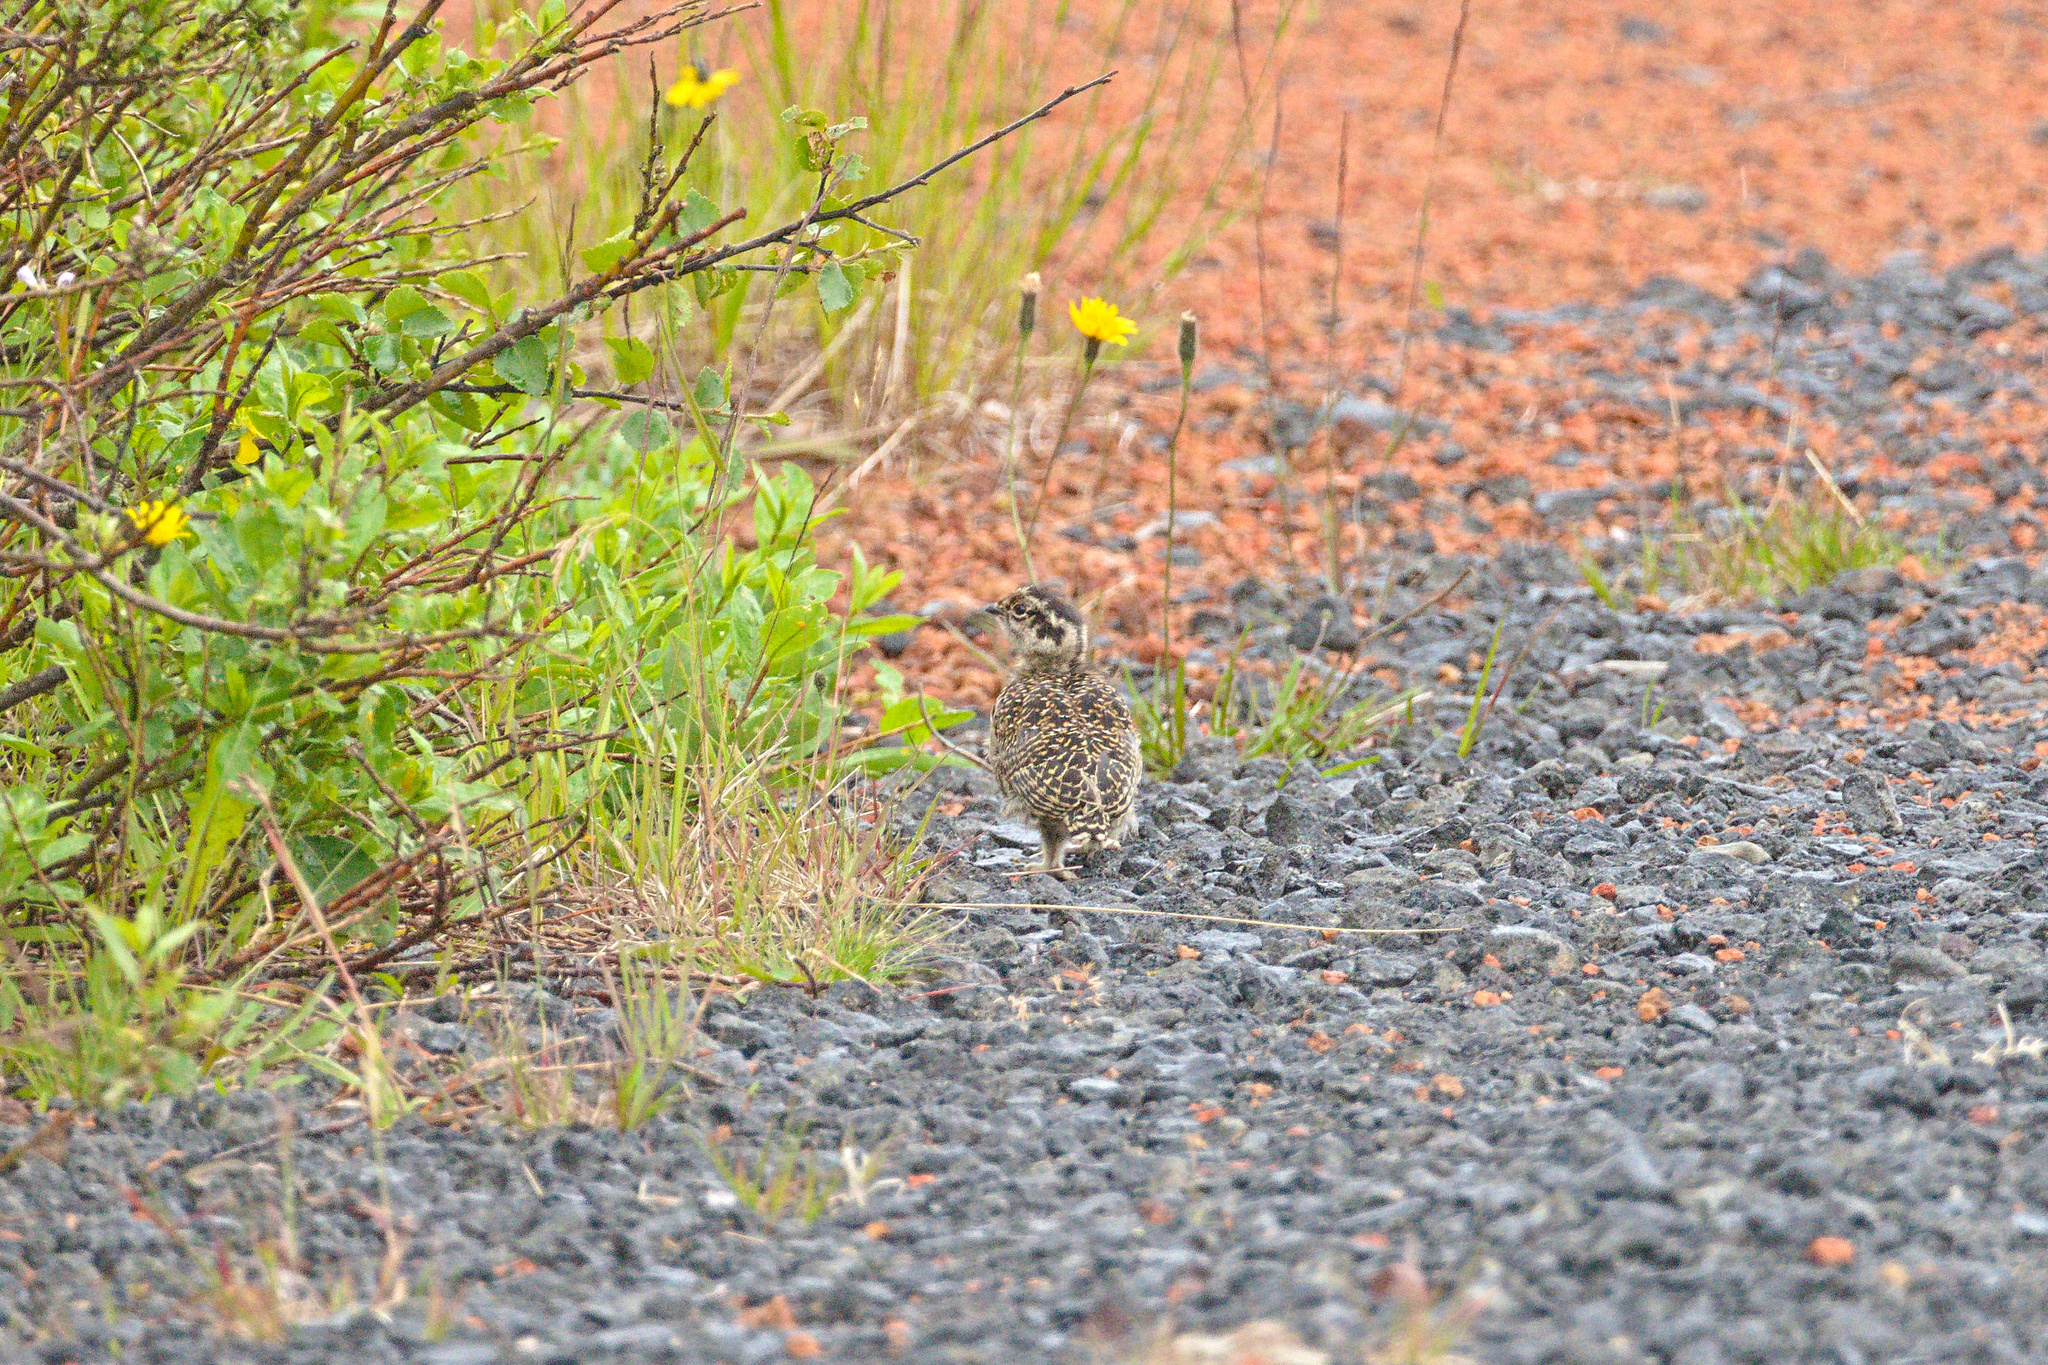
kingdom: Animalia
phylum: Chordata
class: Aves
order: Galliformes
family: Phasianidae
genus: Lagopus
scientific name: Lagopus muta
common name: Rock ptarmigan
